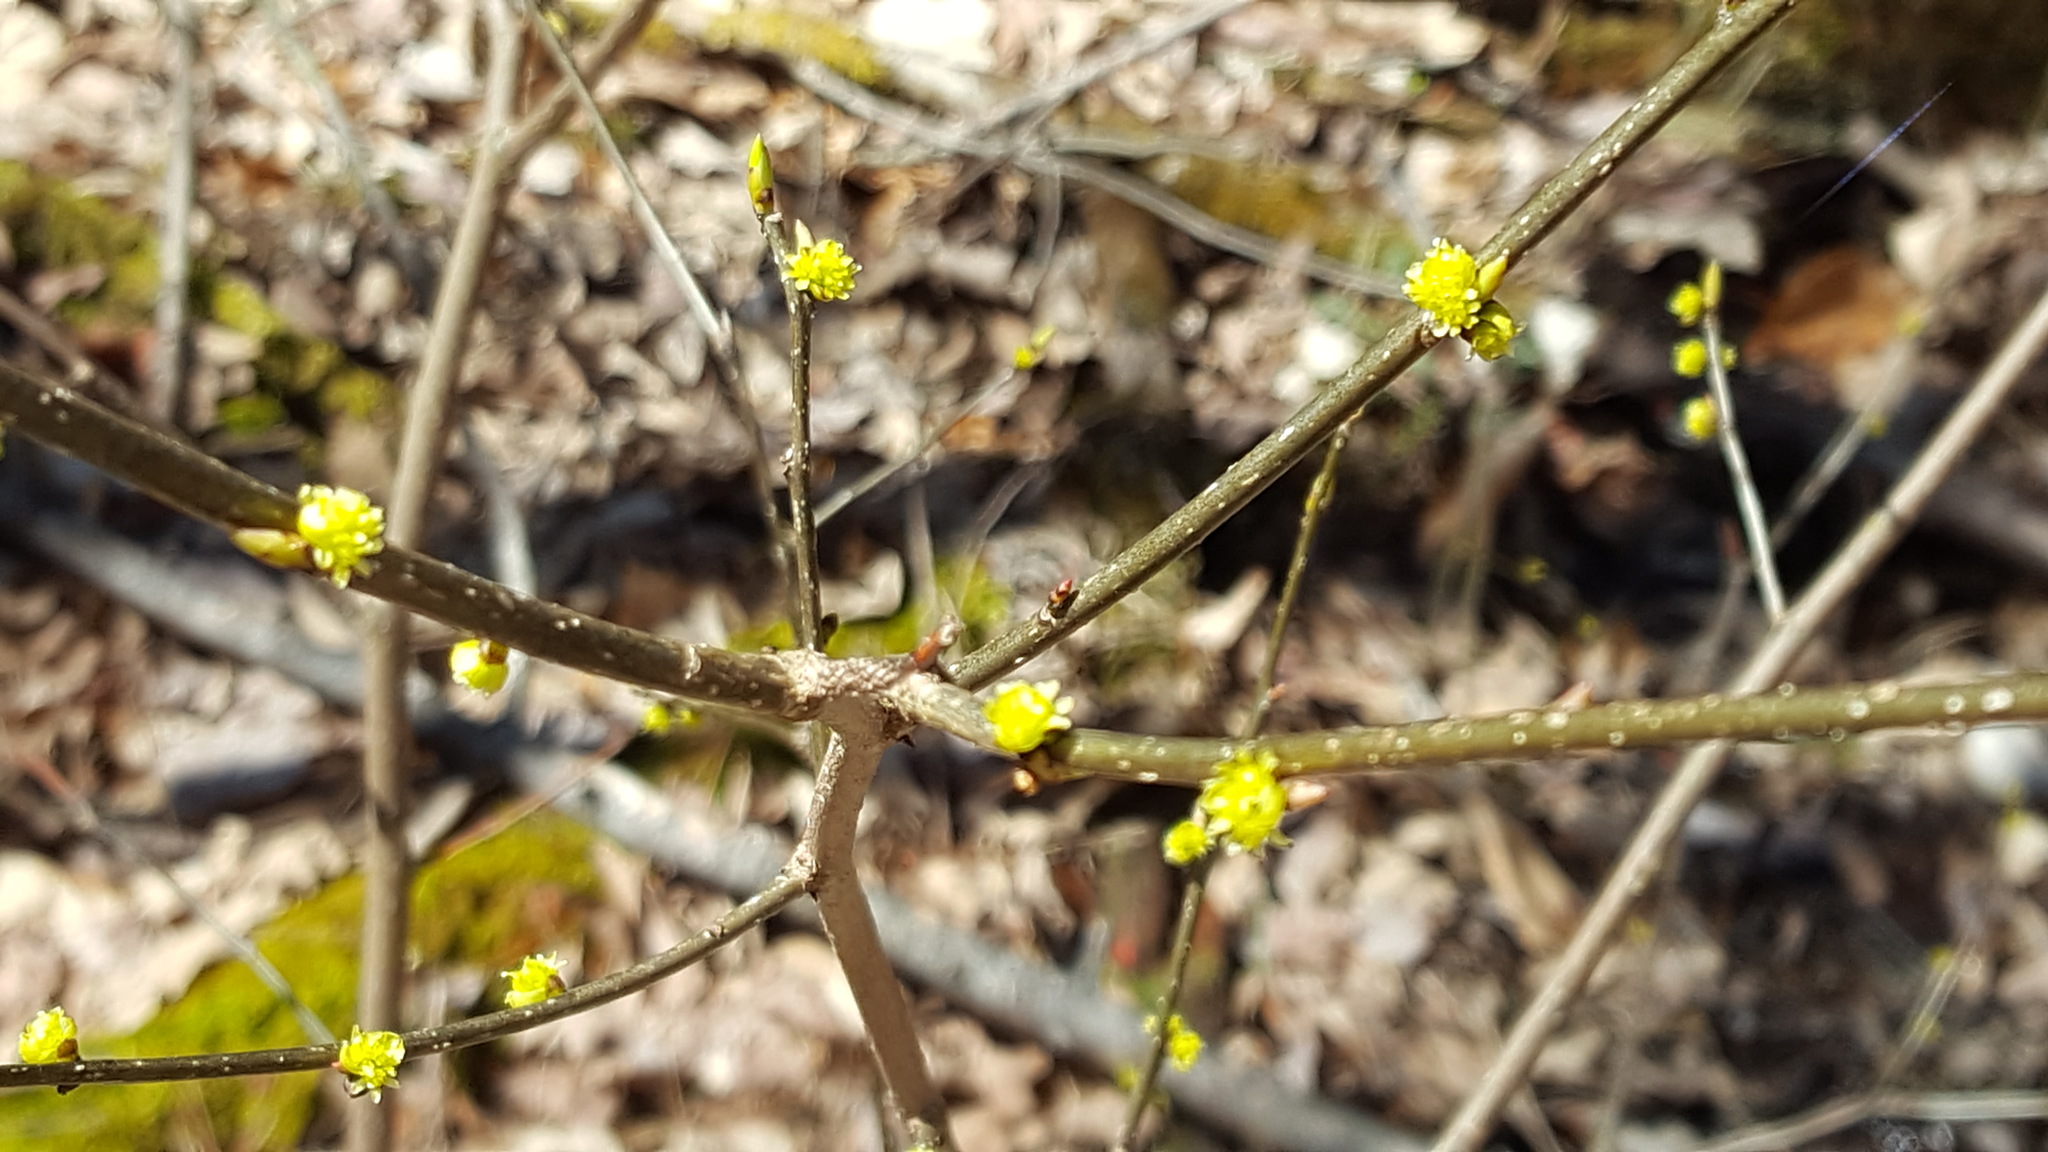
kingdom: Plantae
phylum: Tracheophyta
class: Magnoliopsida
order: Laurales
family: Lauraceae
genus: Lindera
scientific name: Lindera benzoin
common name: Spicebush
